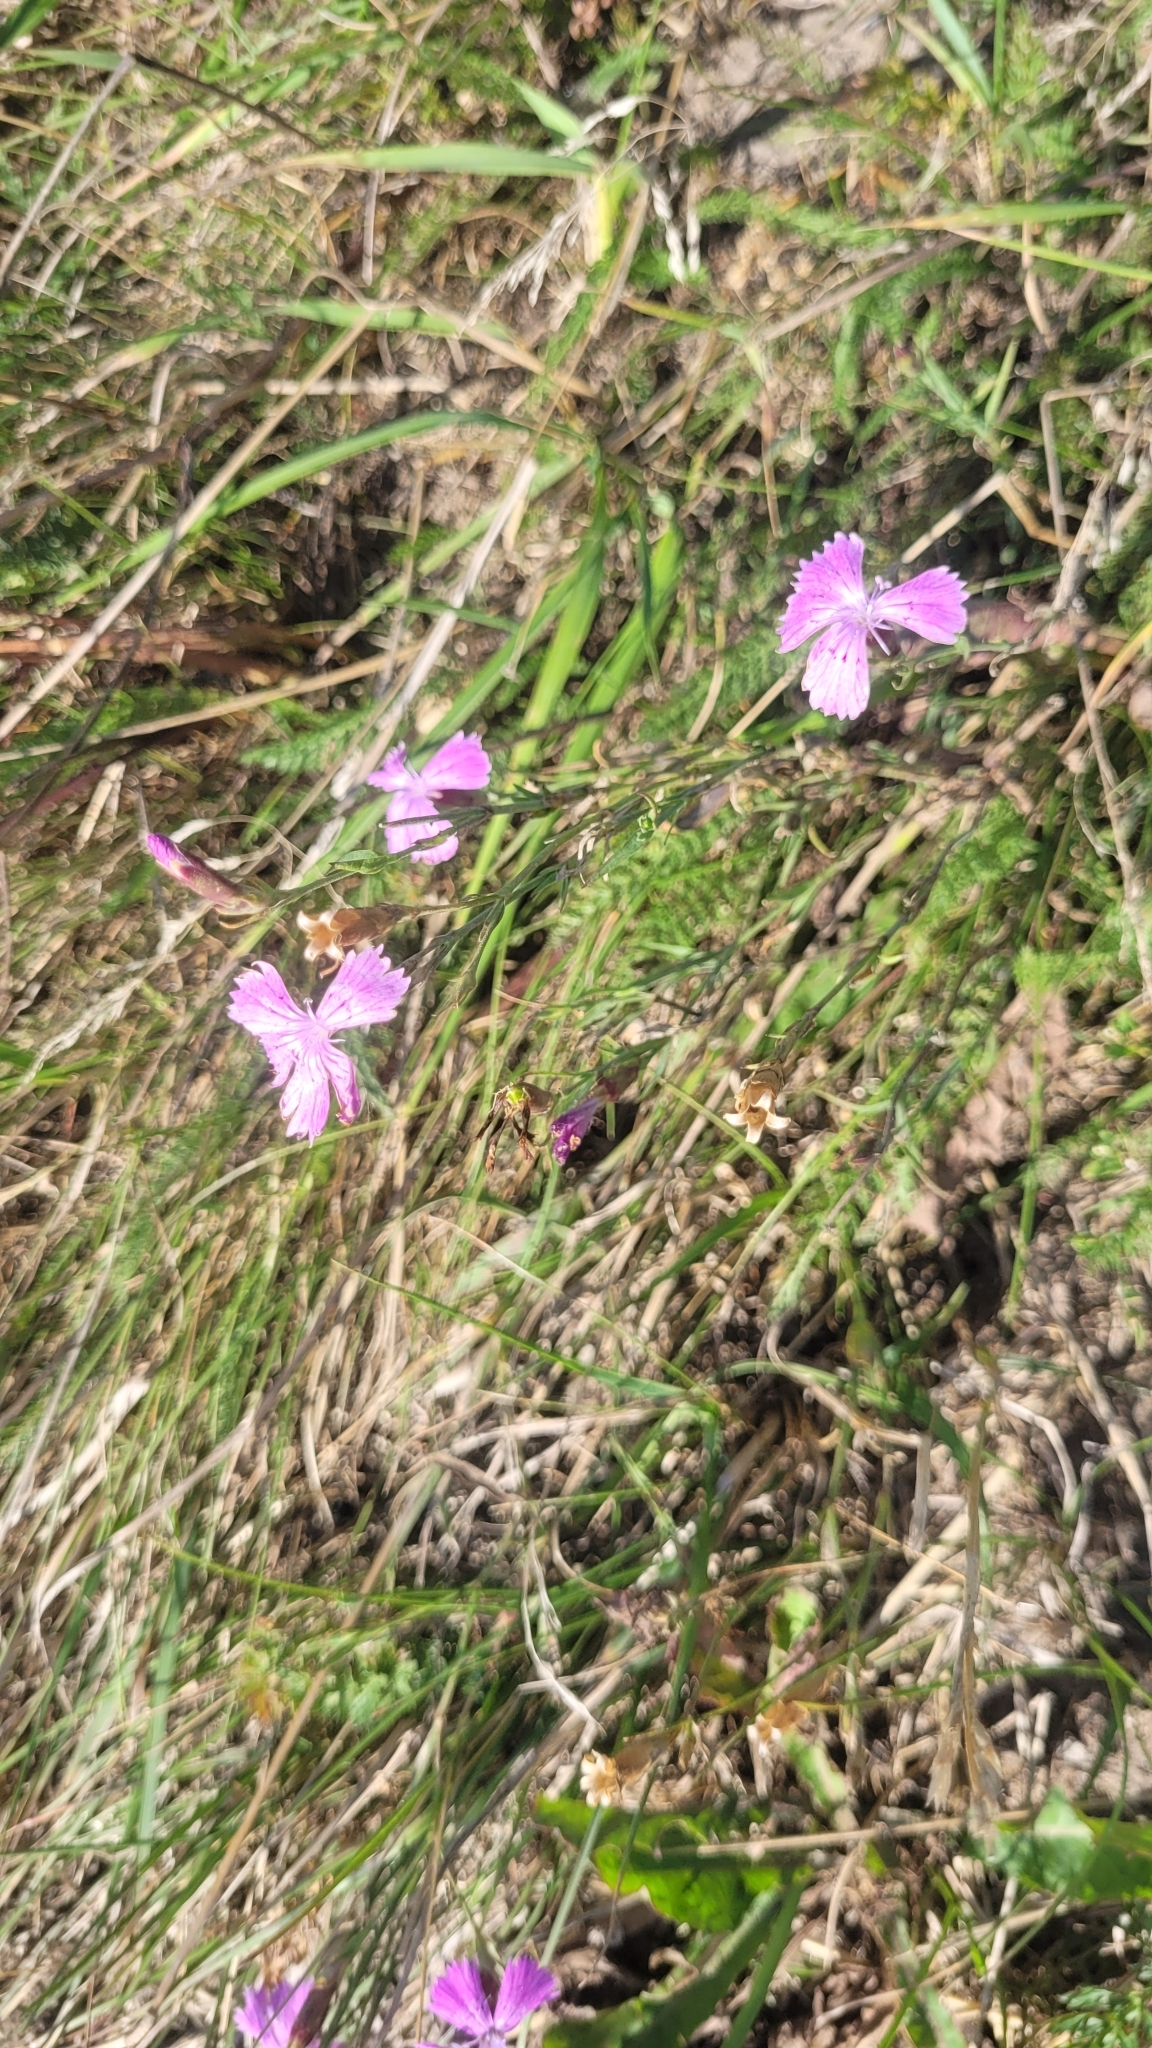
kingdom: Plantae
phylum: Tracheophyta
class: Magnoliopsida
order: Caryophyllales
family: Caryophyllaceae
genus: Dianthus
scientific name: Dianthus chinensis
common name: Rainbow pink
